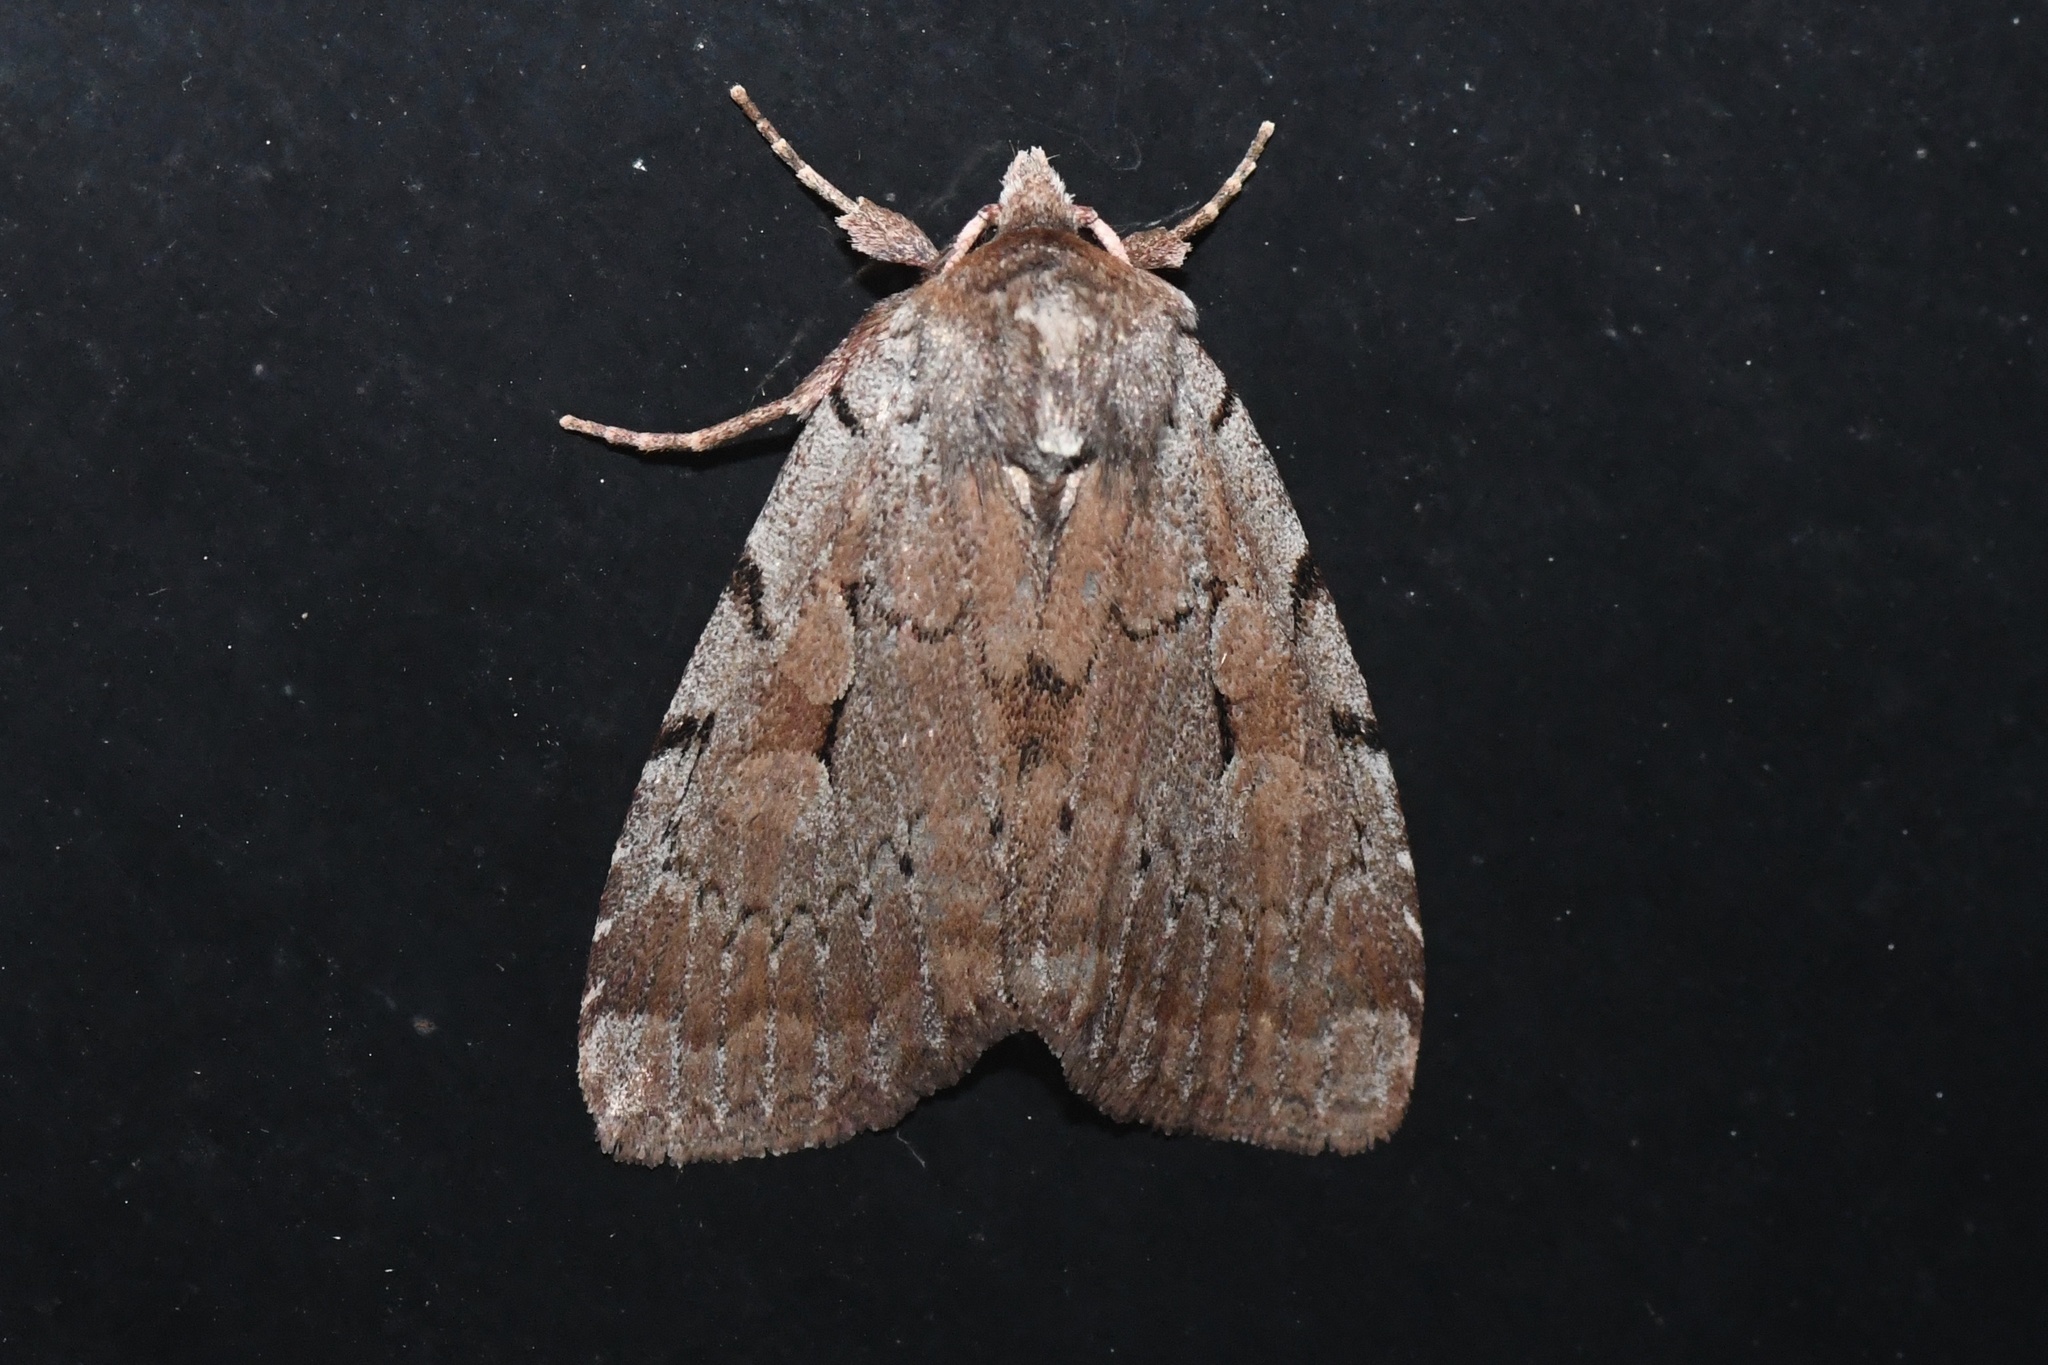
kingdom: Animalia
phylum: Arthropoda
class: Insecta
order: Lepidoptera
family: Noctuidae
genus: Xestia
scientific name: Xestia praevia
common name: Praevia dart
